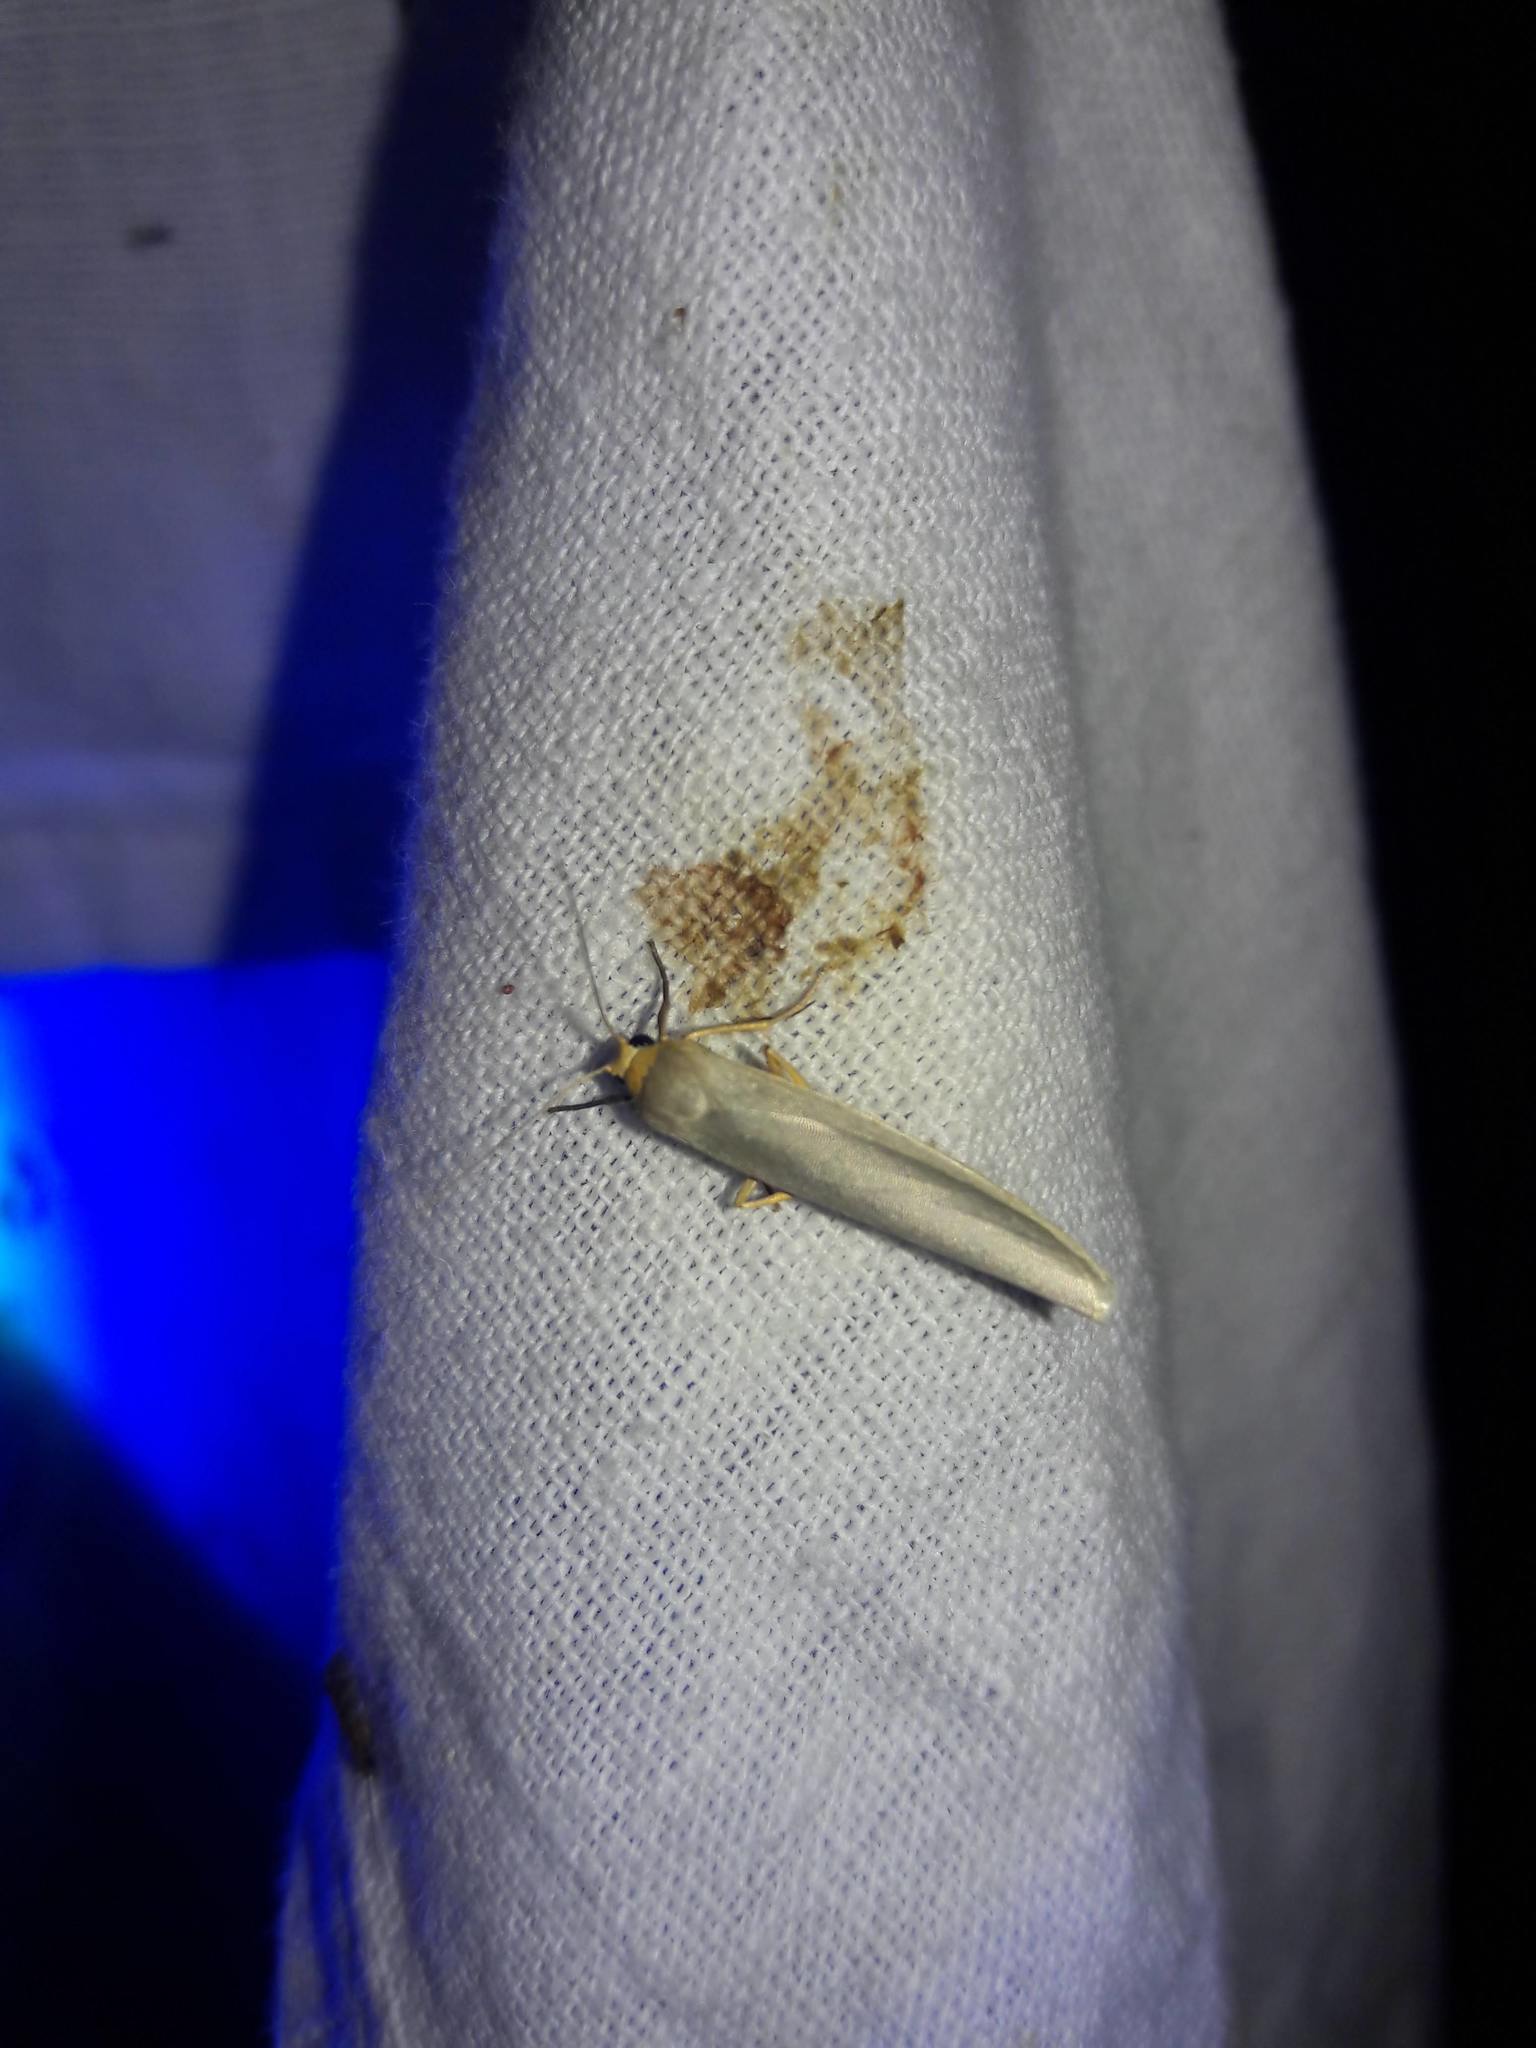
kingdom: Animalia
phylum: Arthropoda
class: Insecta
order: Lepidoptera
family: Erebidae
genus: Eilema
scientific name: Eilema caniola
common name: Hoary footman
